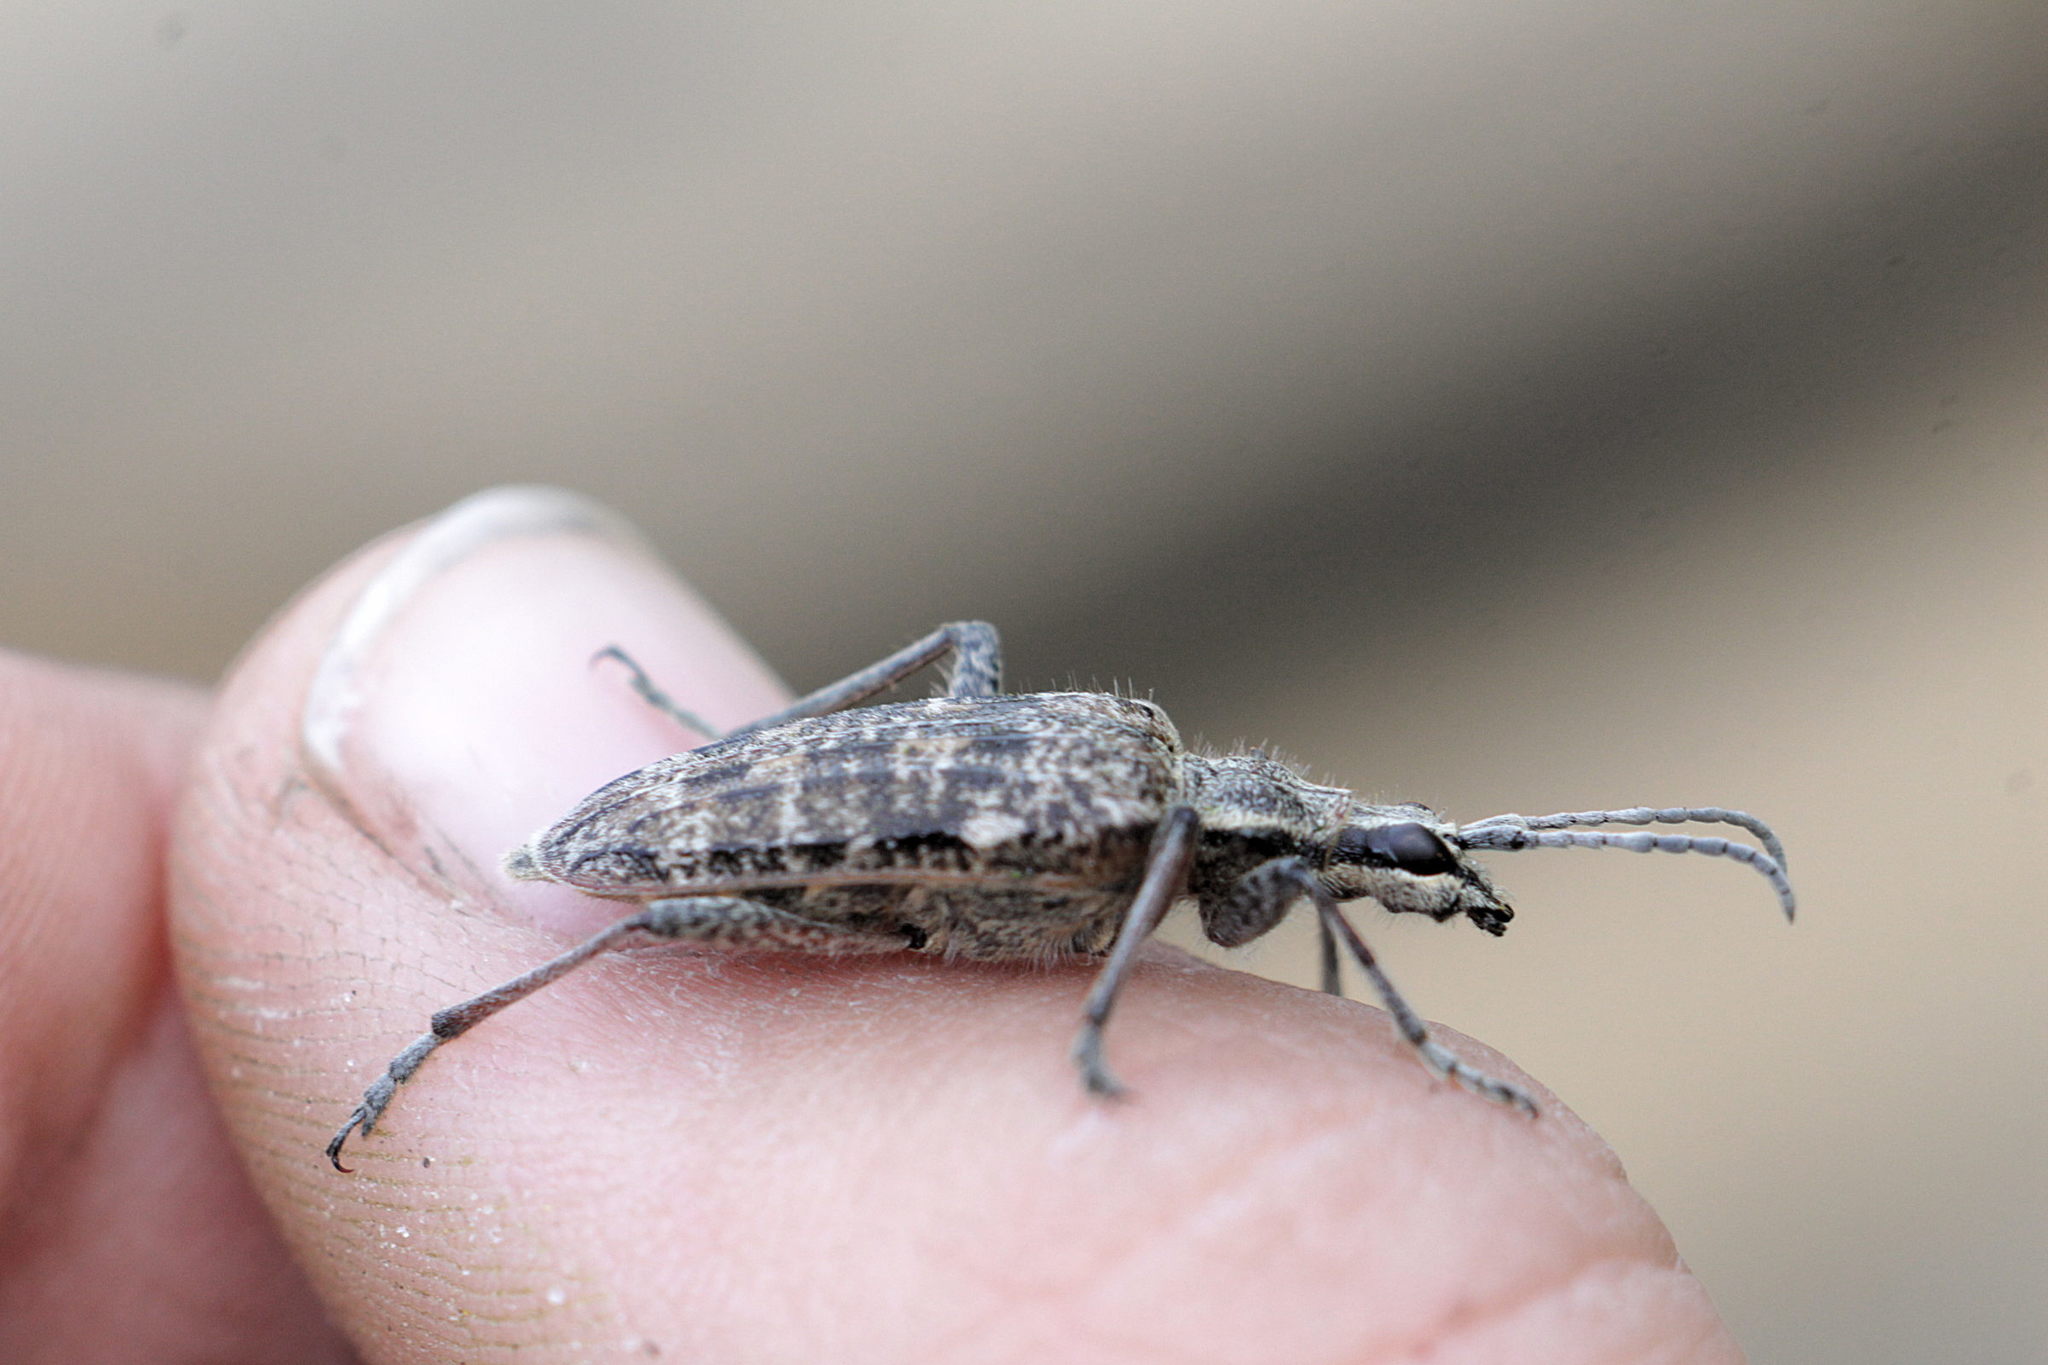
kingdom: Animalia
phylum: Arthropoda
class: Insecta
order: Coleoptera
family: Cerambycidae
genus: Rhagium
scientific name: Rhagium inquisitor
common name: Ribbed pine borer
